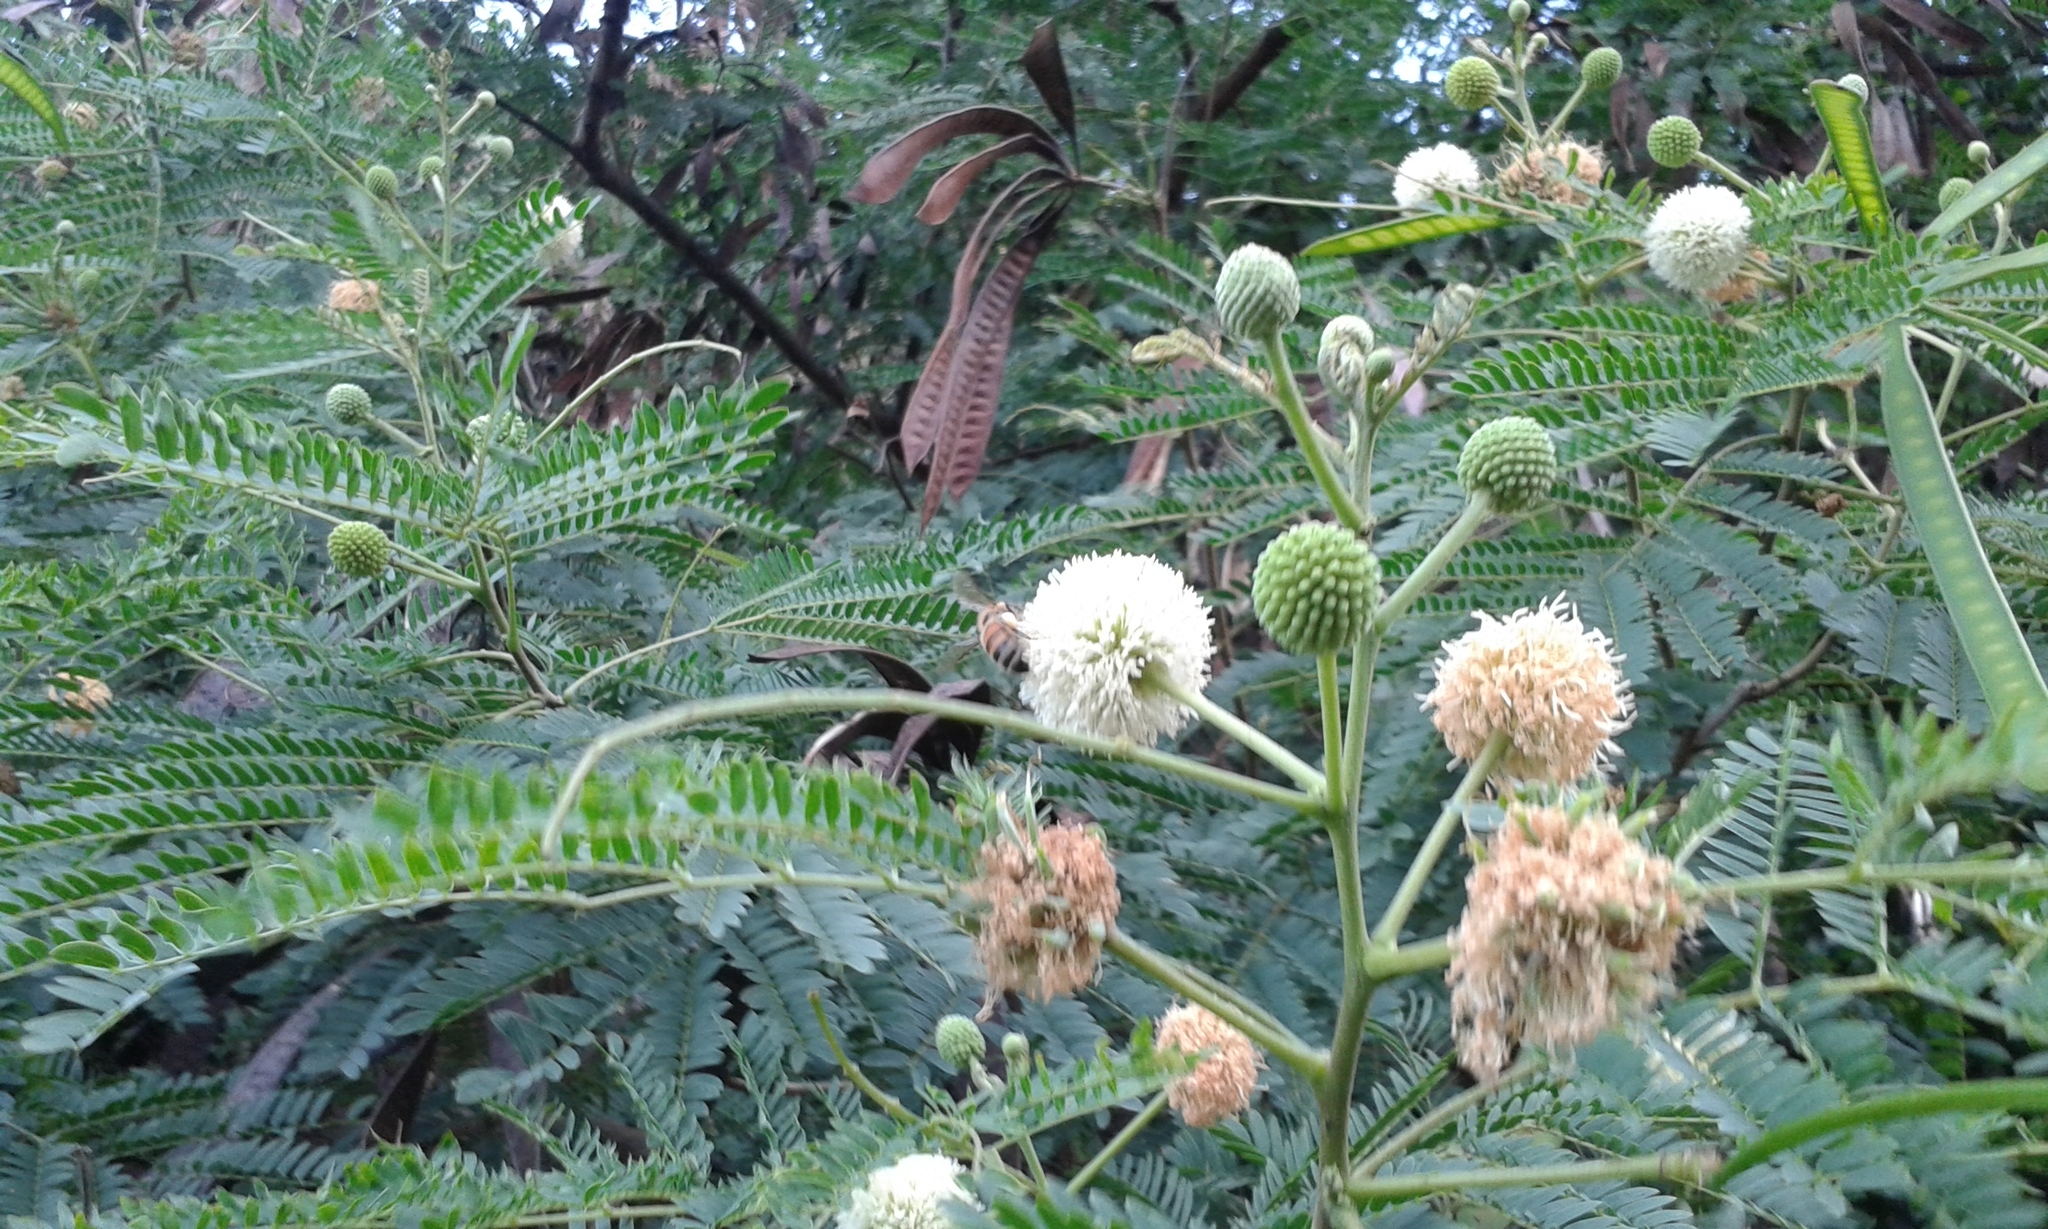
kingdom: Animalia
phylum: Arthropoda
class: Insecta
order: Hymenoptera
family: Apidae
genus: Apis
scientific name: Apis mellifera
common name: Honey bee
